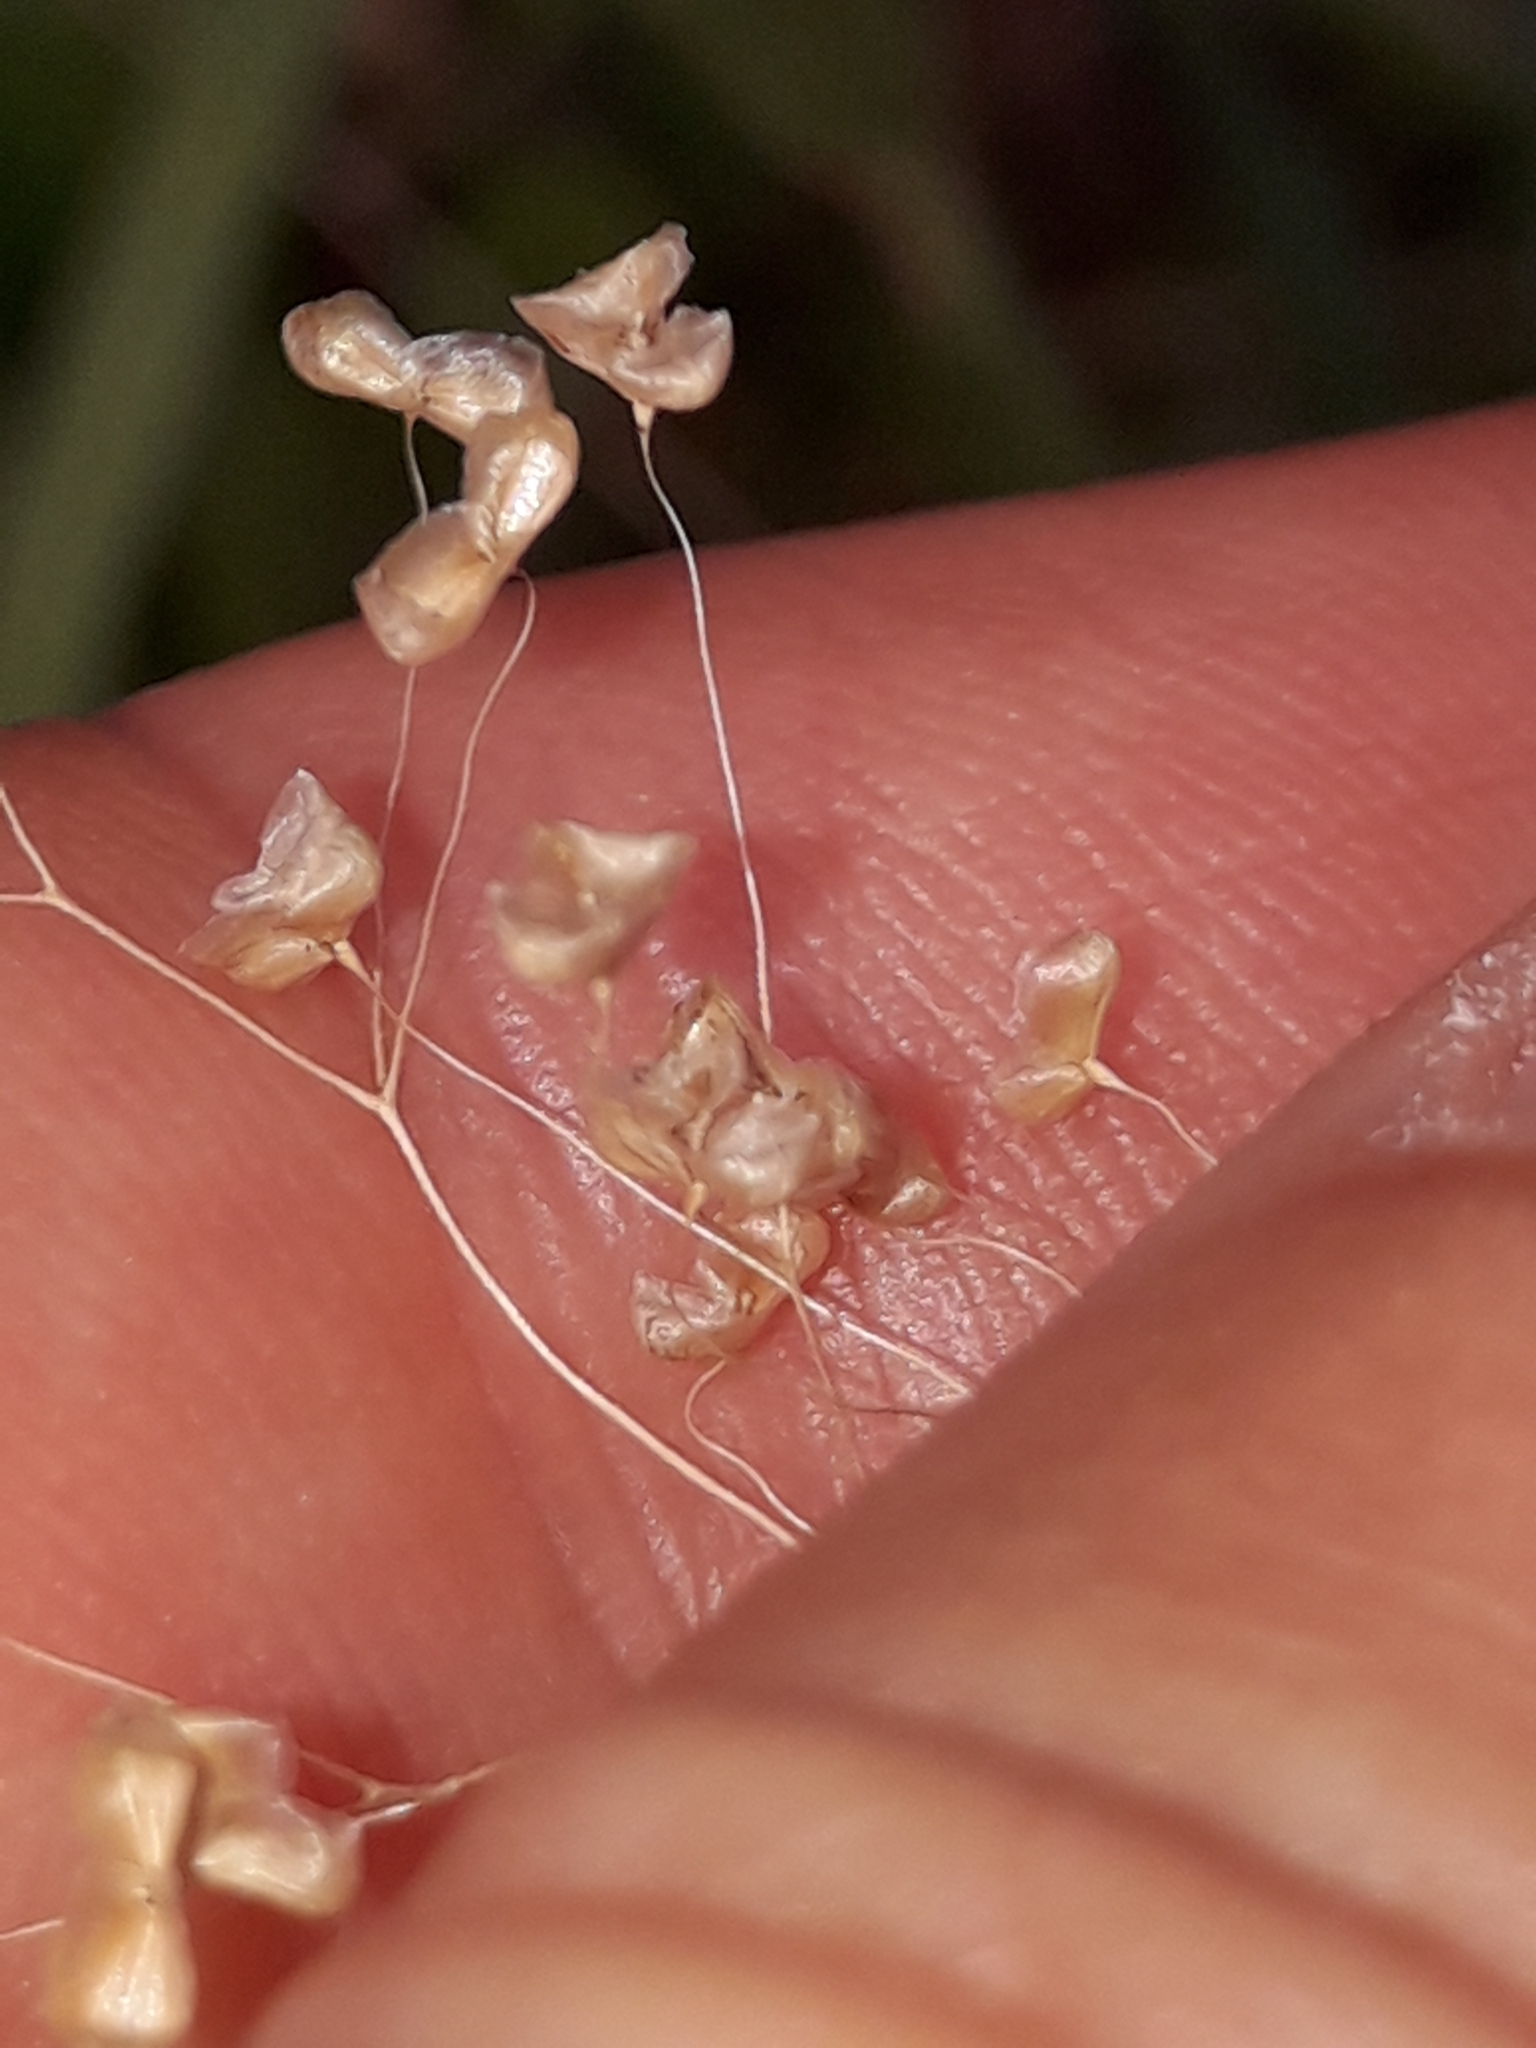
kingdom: Plantae
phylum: Tracheophyta
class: Liliopsida
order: Poales
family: Poaceae
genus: Briza
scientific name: Briza minor
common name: Lesser quaking-grass
